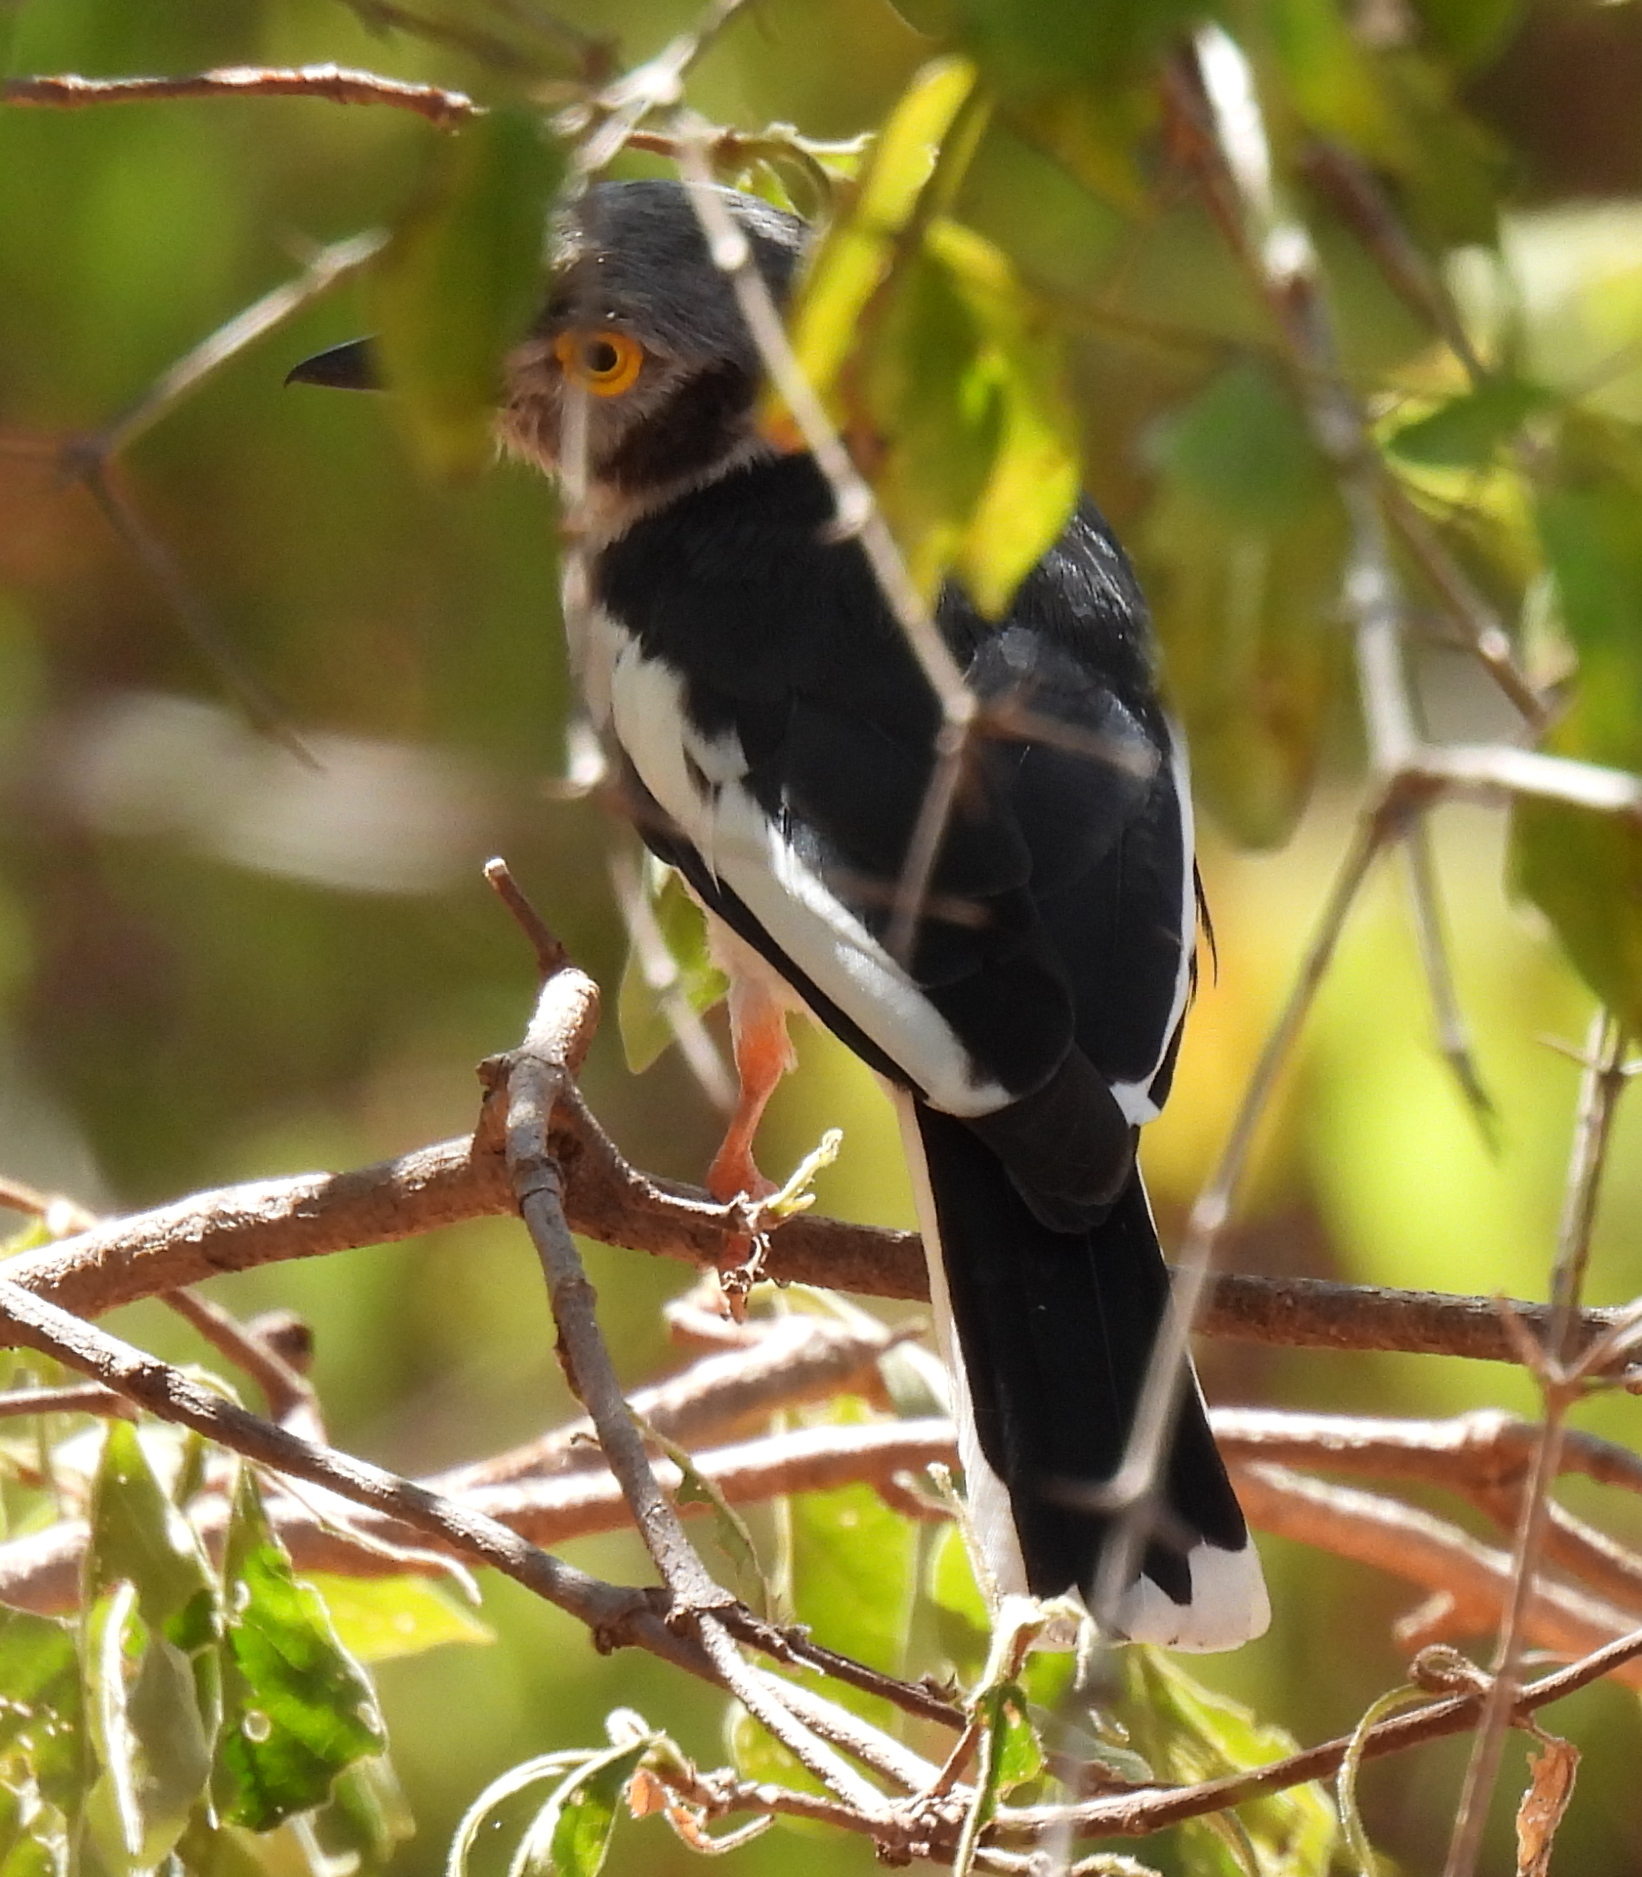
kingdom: Animalia
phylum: Chordata
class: Aves
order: Passeriformes
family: Prionopidae
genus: Prionops
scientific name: Prionops plumatus
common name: White-crested helmetshrike
